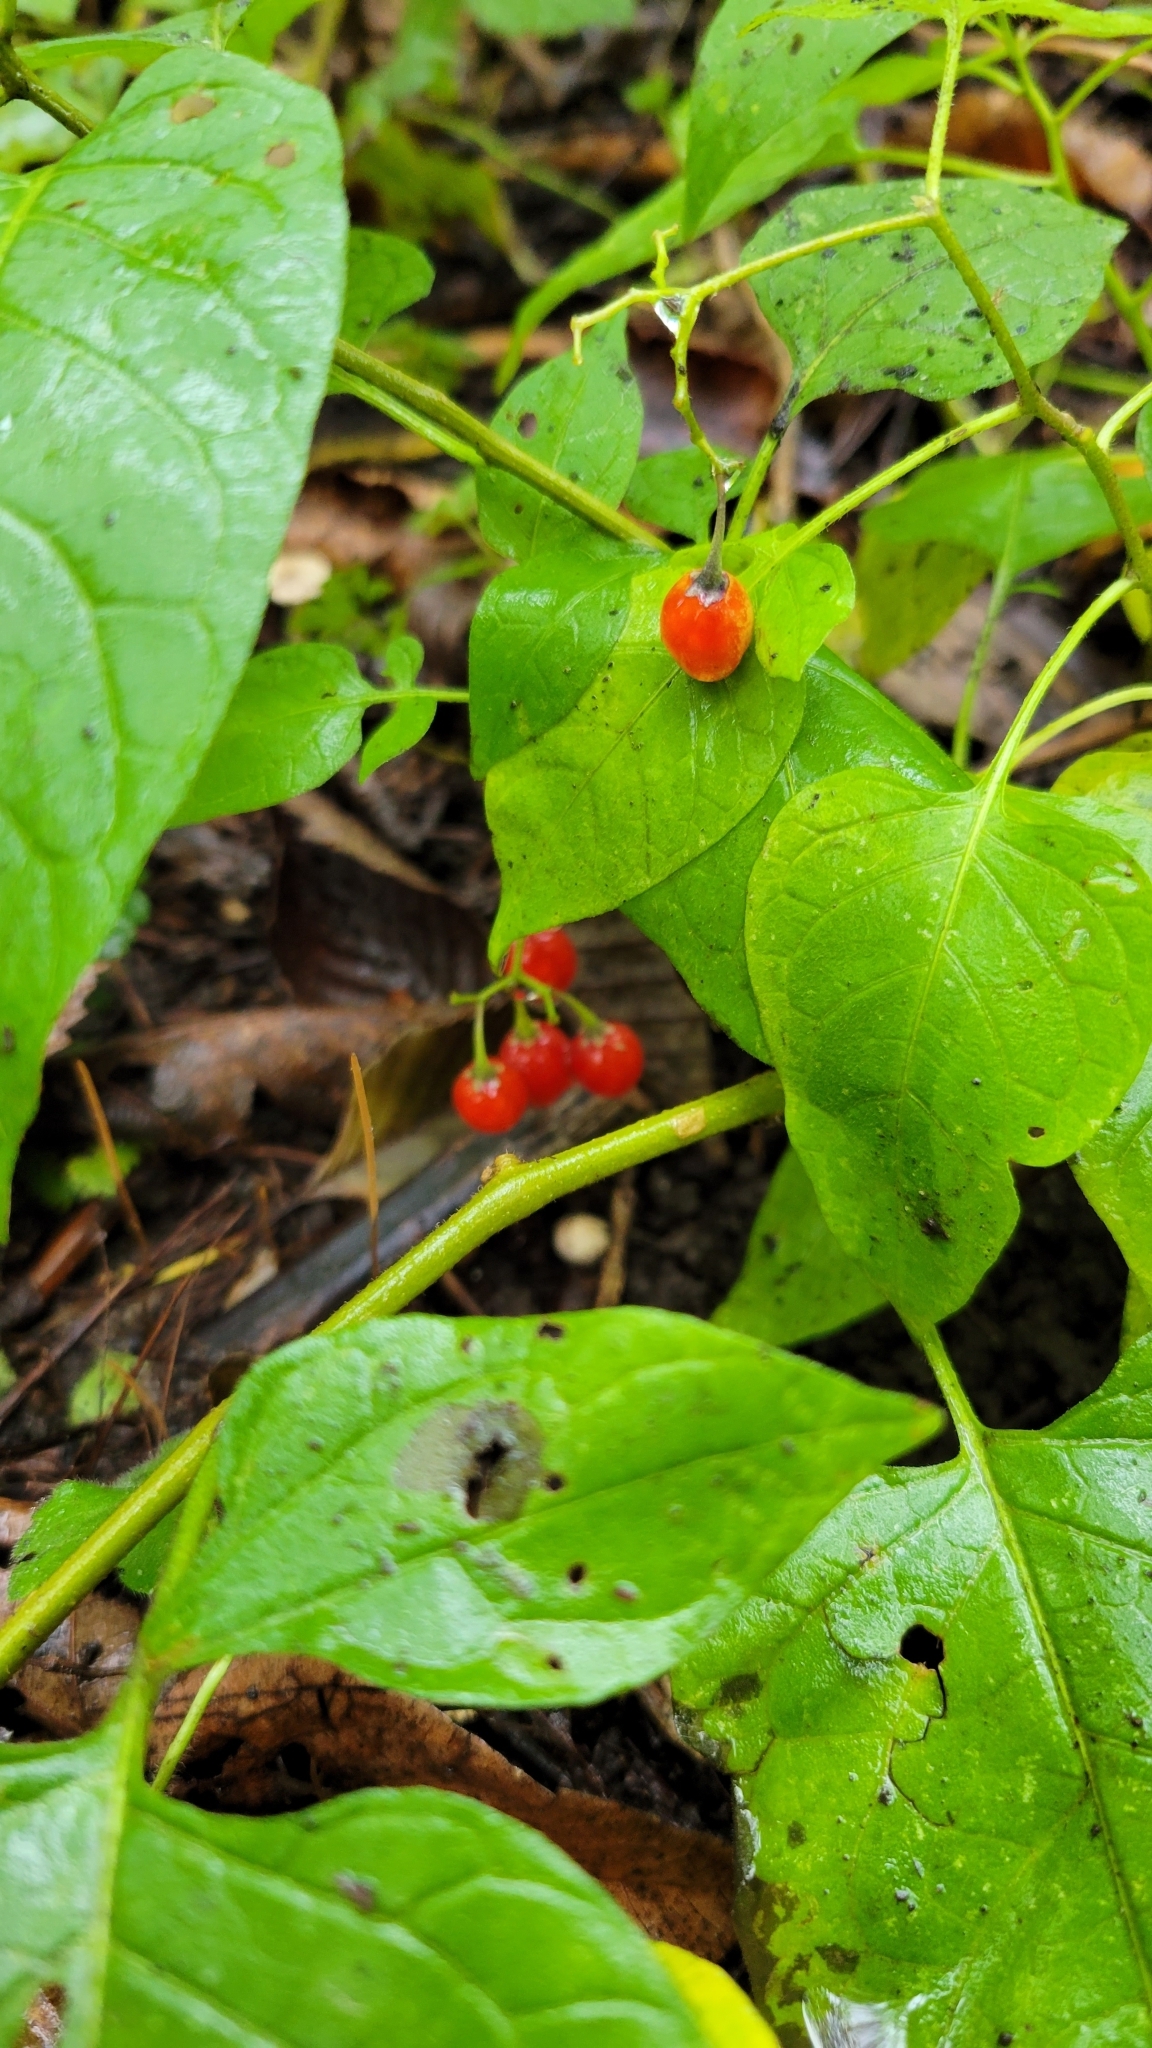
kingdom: Plantae
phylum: Tracheophyta
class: Magnoliopsida
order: Solanales
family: Solanaceae
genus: Solanum
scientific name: Solanum dulcamara
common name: Climbing nightshade
